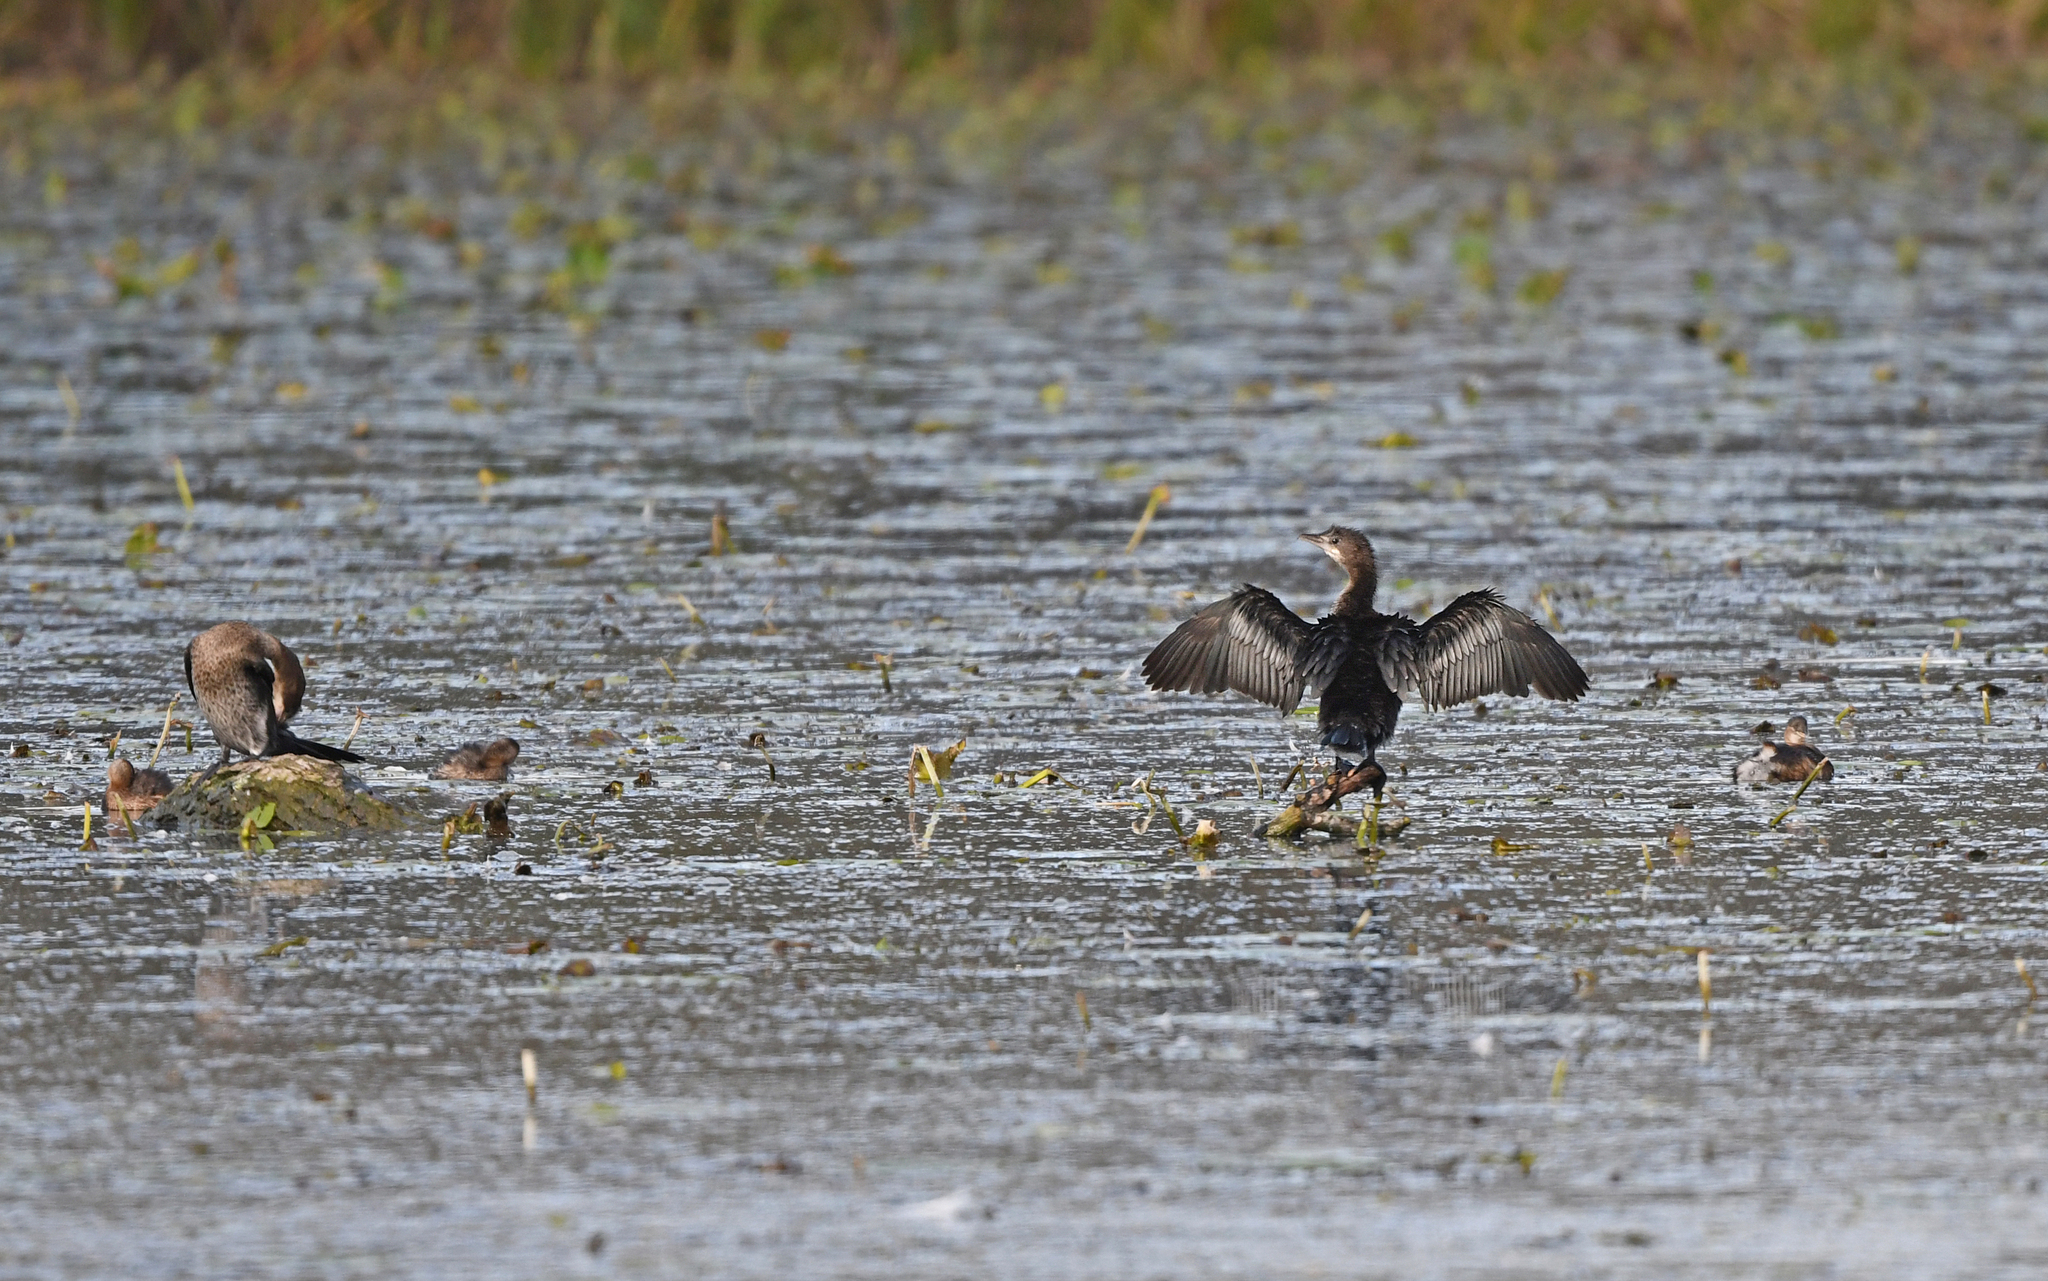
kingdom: Animalia
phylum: Chordata
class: Aves
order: Suliformes
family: Phalacrocoracidae
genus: Microcarbo
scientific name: Microcarbo pygmaeus
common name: Pygmy cormorant
